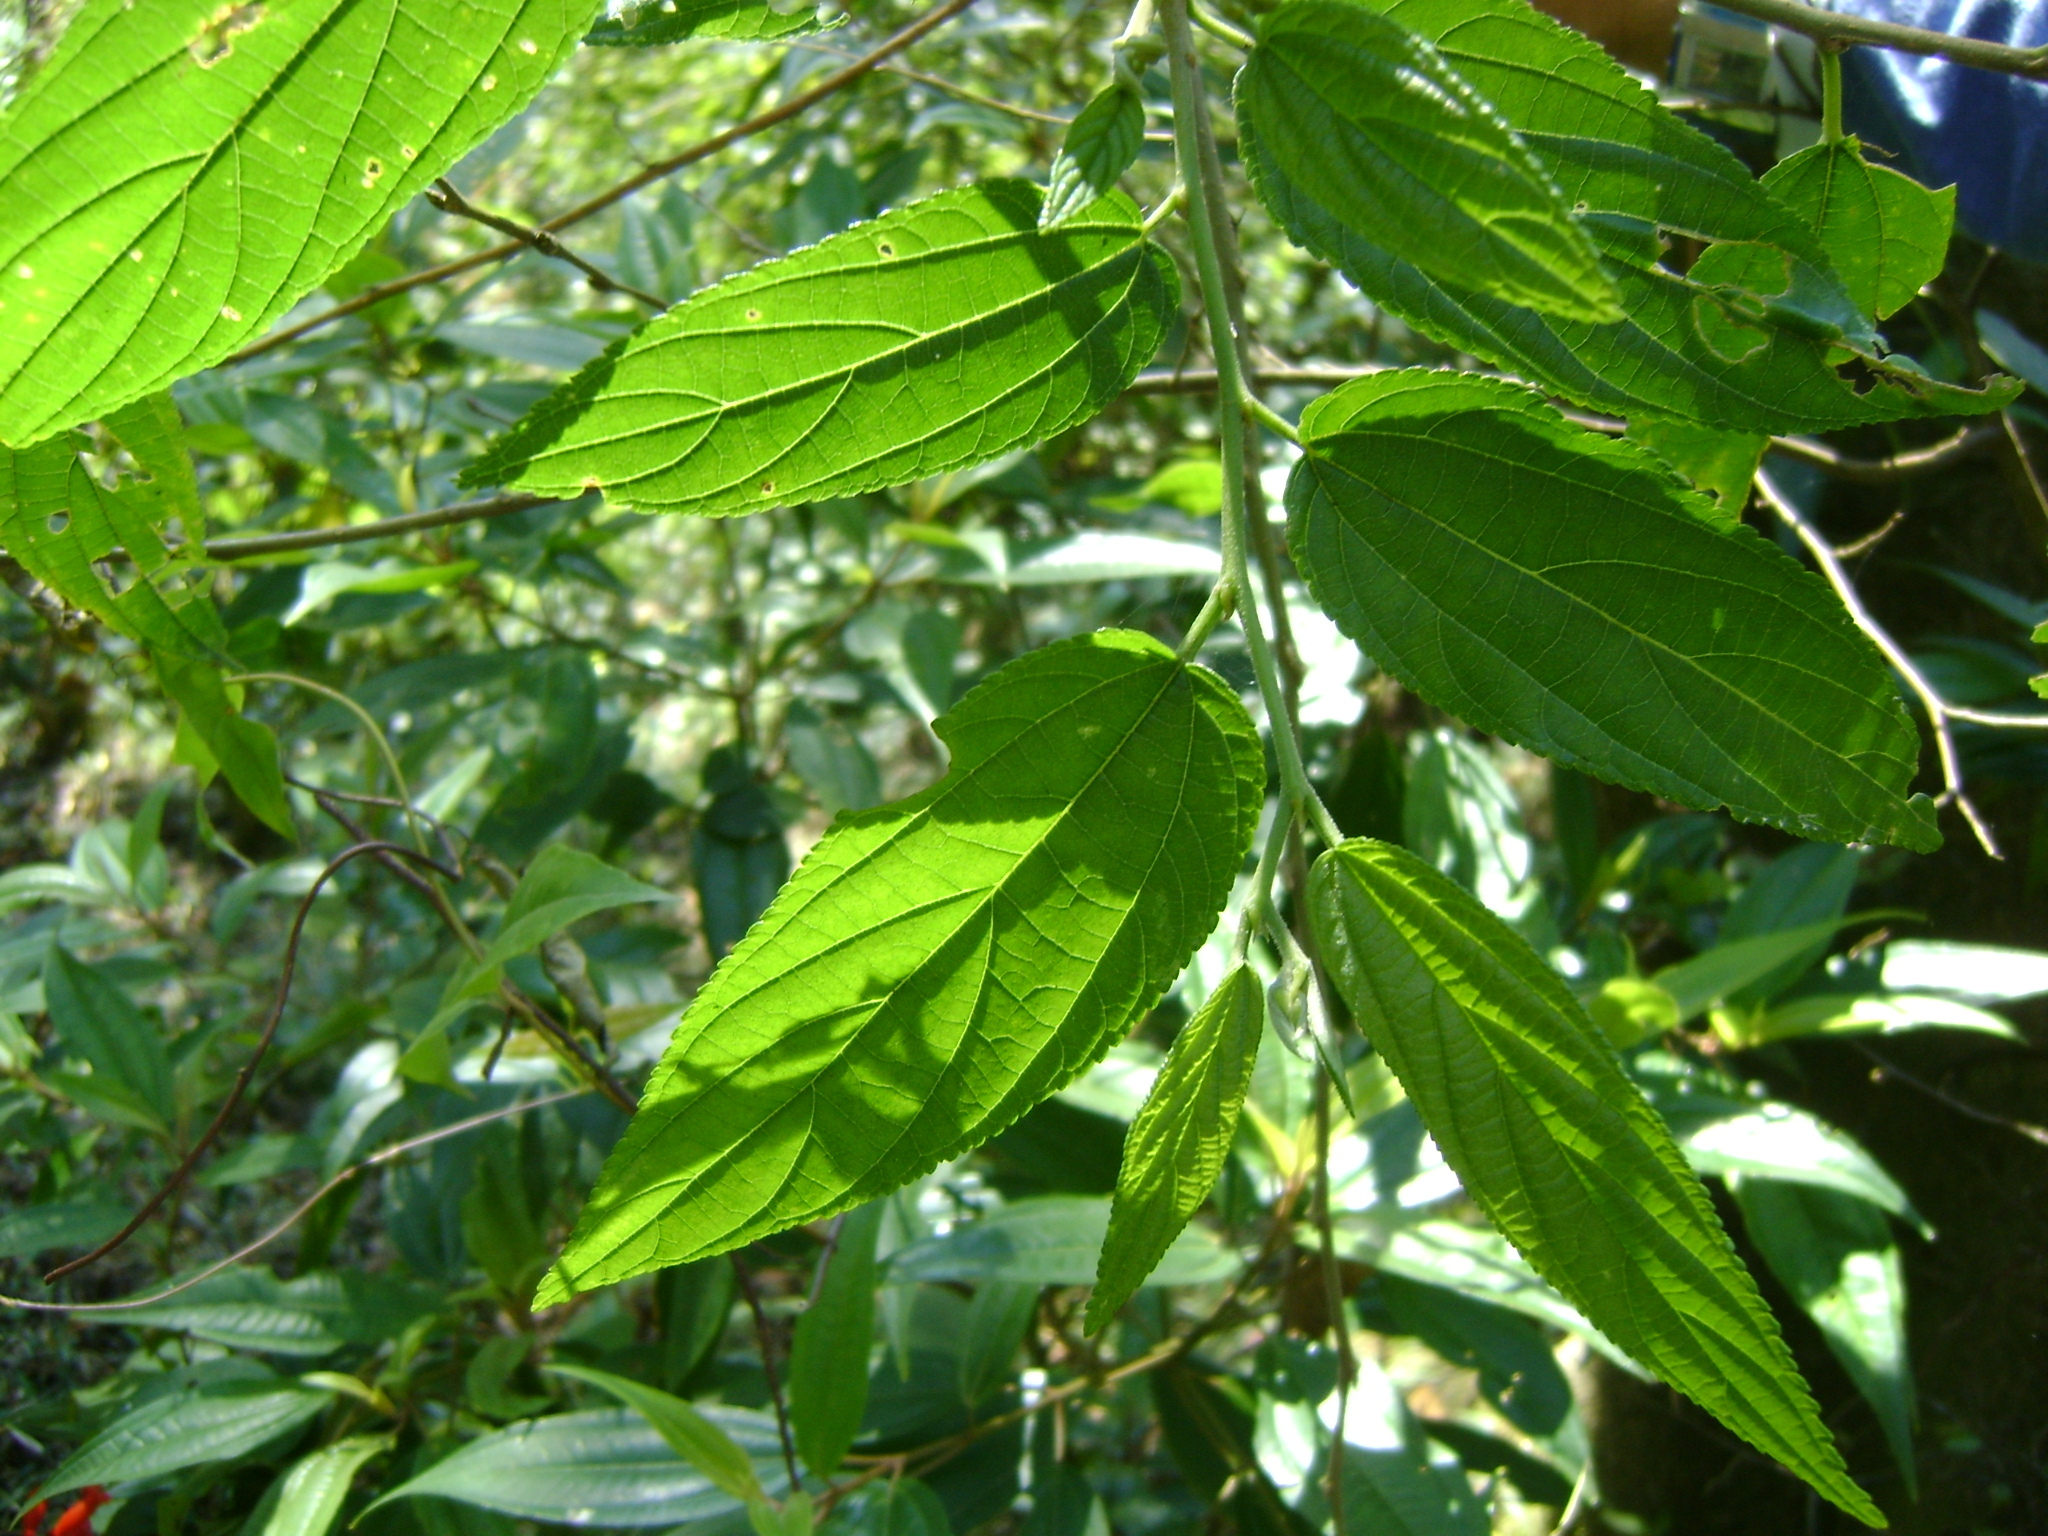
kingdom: Plantae
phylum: Tracheophyta
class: Magnoliopsida
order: Rosales
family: Cannabaceae
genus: Trema
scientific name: Trema micranthum
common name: Jamaican nettletree
